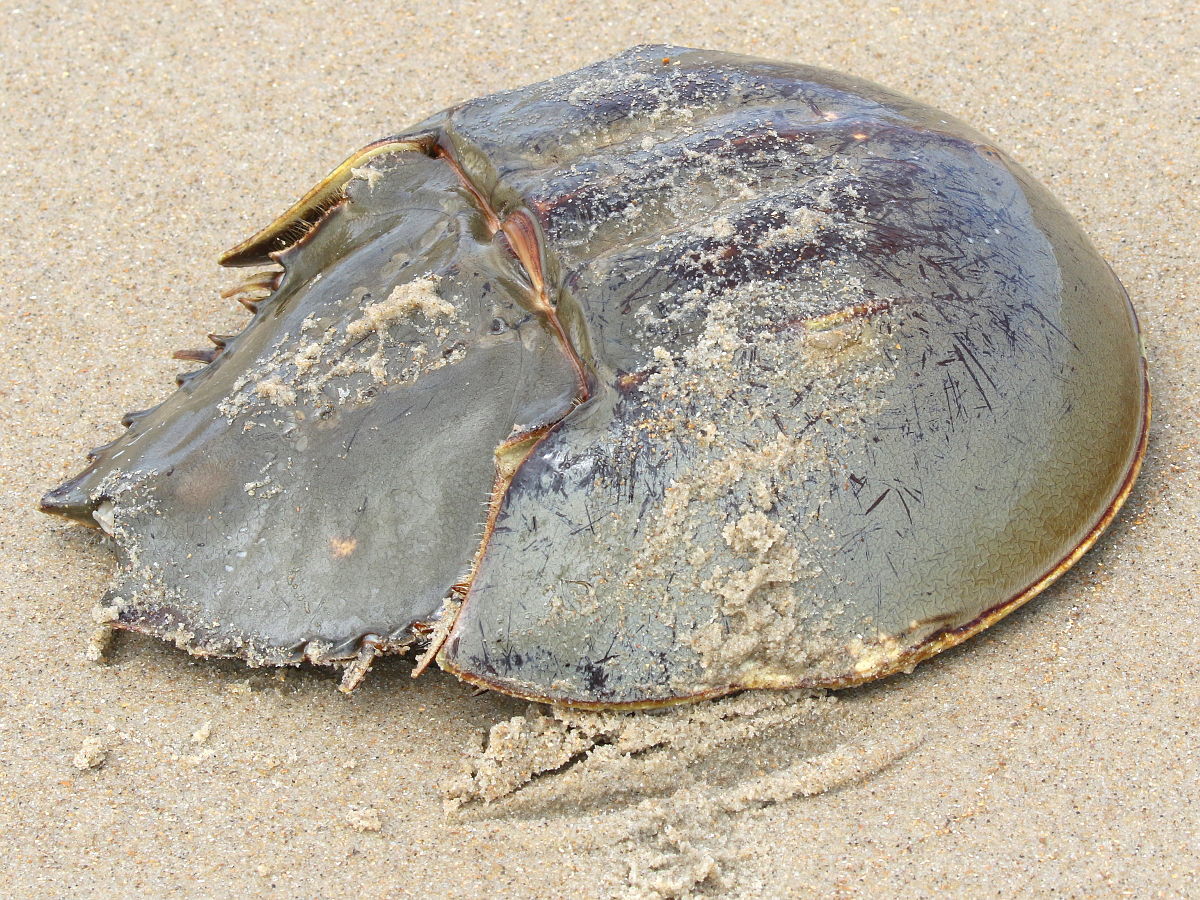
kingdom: Animalia
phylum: Arthropoda
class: Merostomata
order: Xiphosurida
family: Limulidae
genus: Limulus
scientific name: Limulus polyphemus
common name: Horseshoe crab
